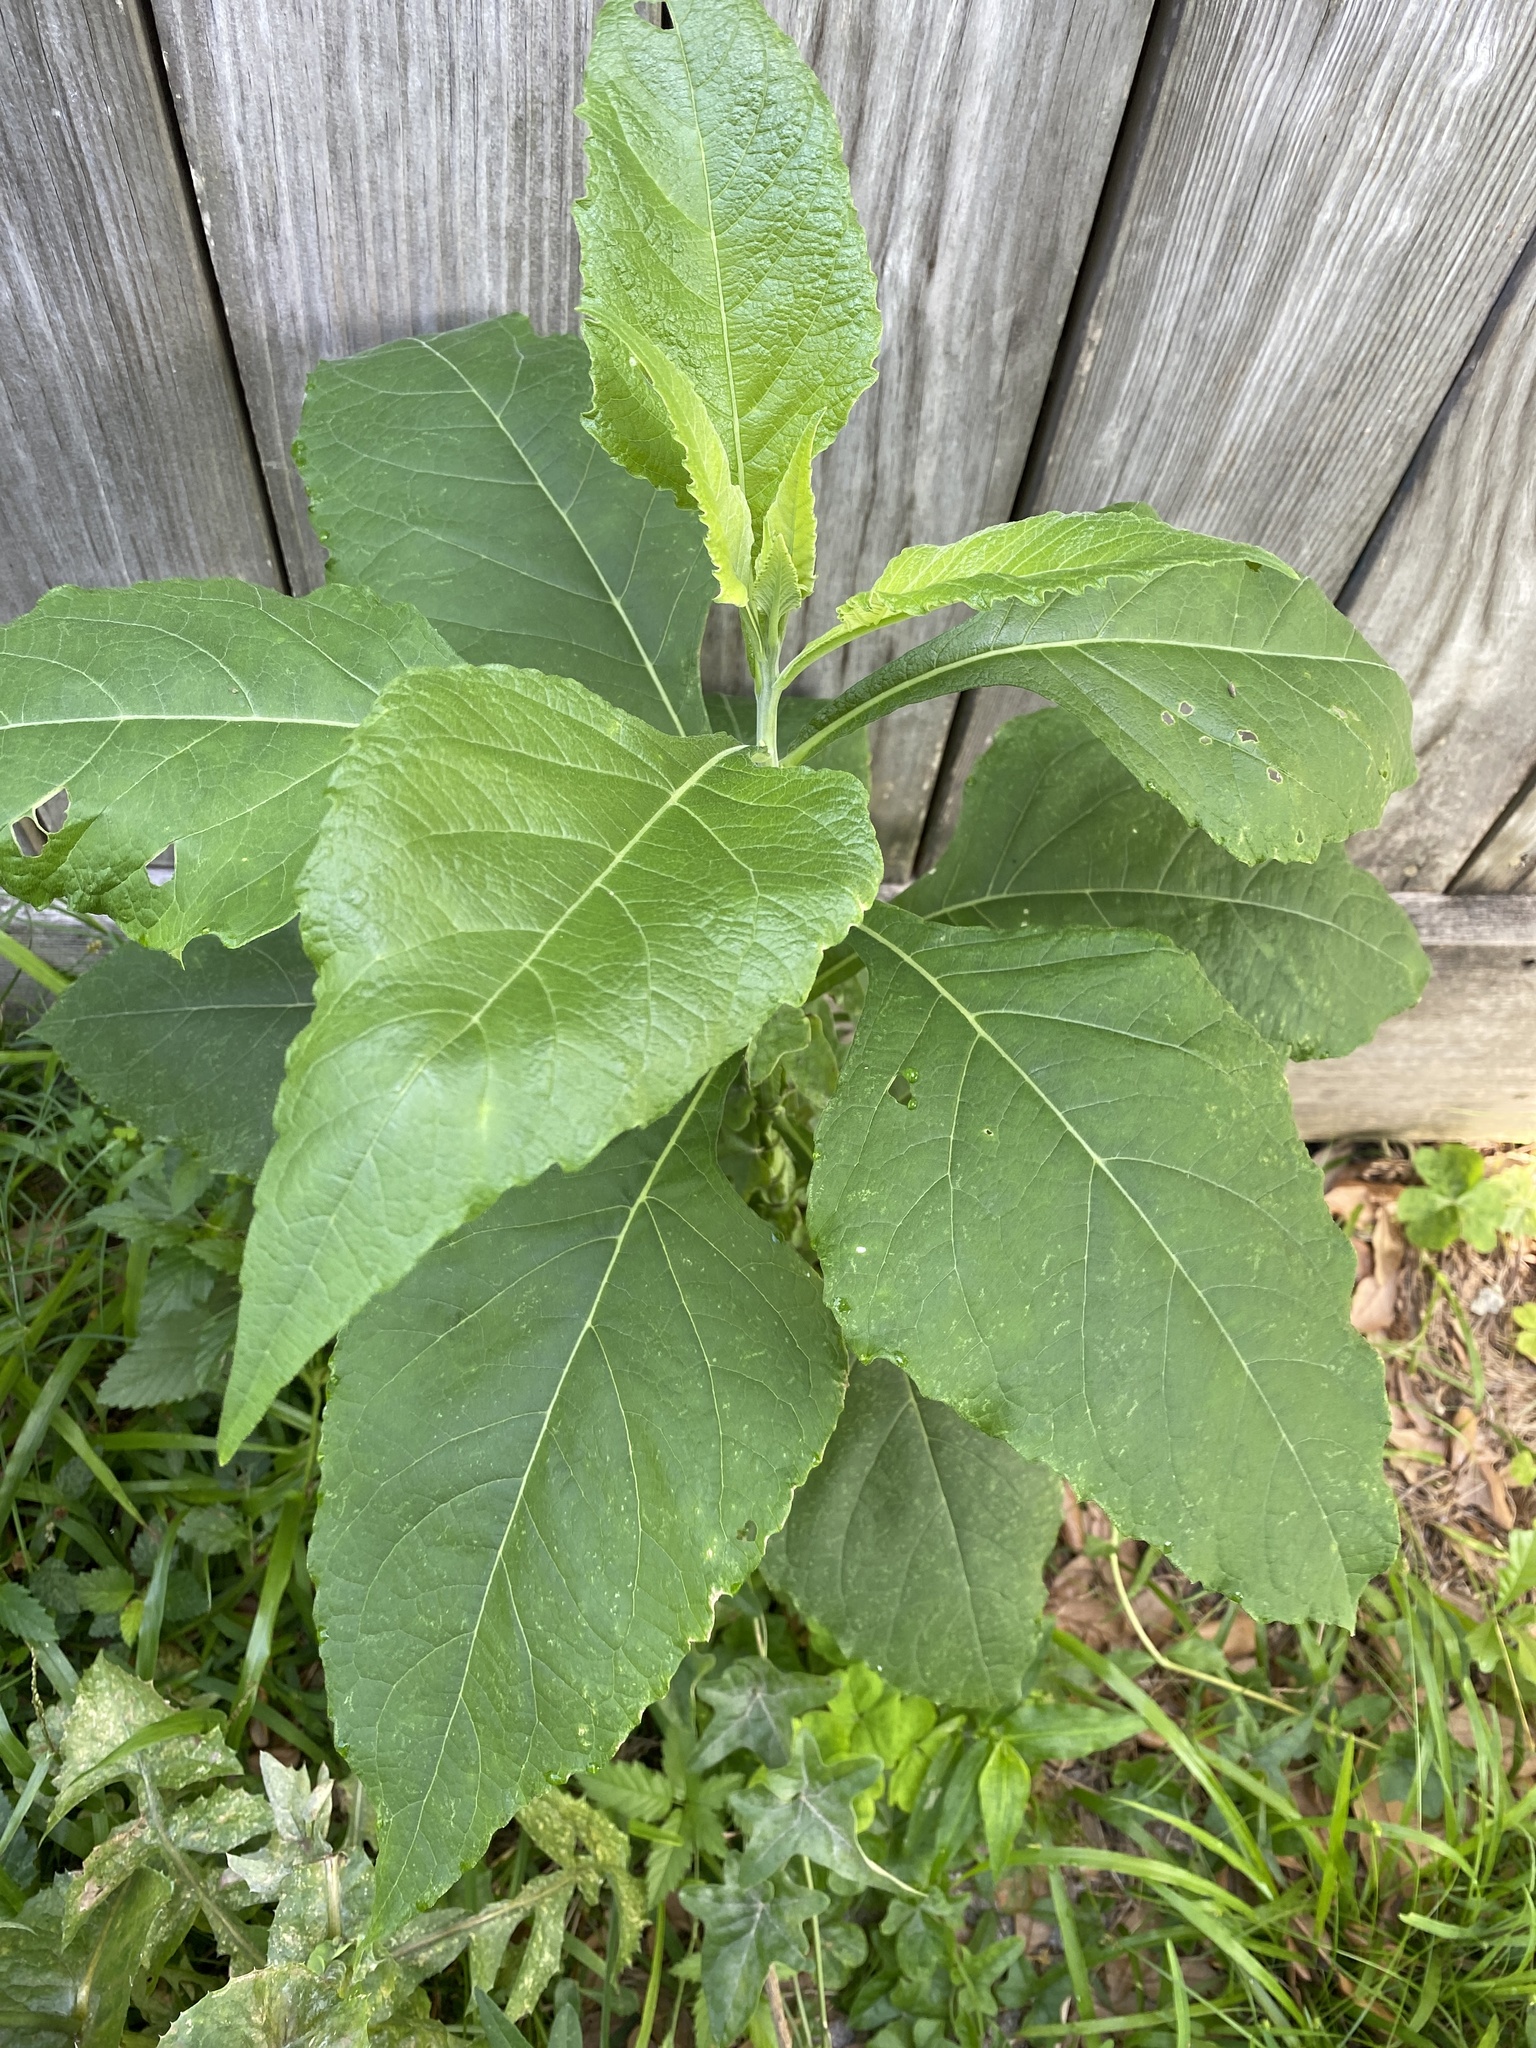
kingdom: Plantae
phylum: Tracheophyta
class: Magnoliopsida
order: Asterales
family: Asteraceae
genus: Verbesina
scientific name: Verbesina virginica
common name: Frostweed
